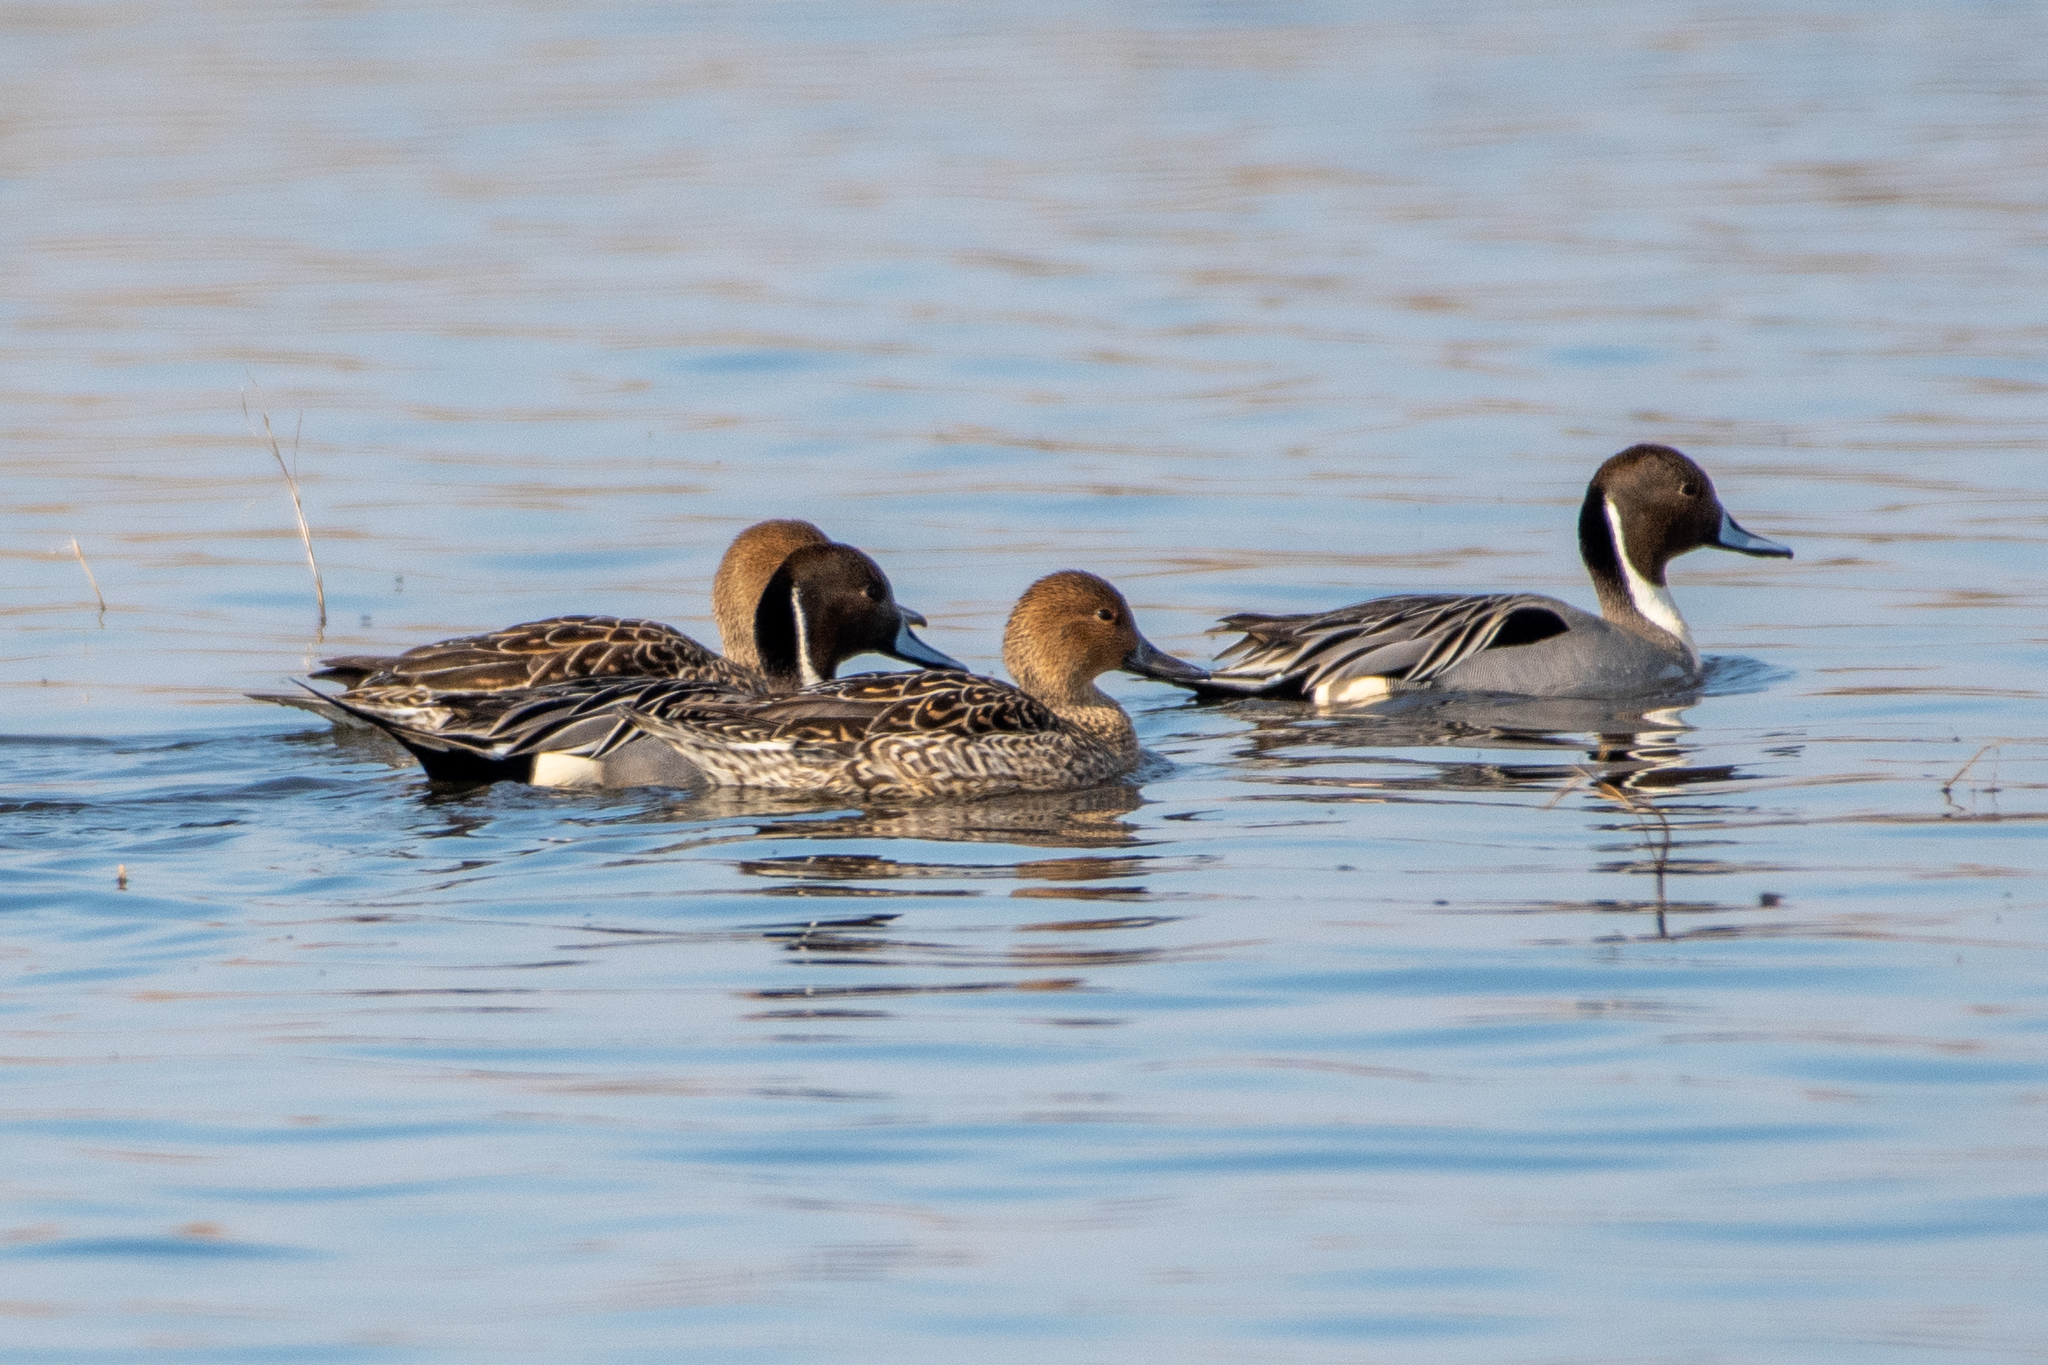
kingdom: Animalia
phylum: Chordata
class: Aves
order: Anseriformes
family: Anatidae
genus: Anas
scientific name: Anas acuta
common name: Northern pintail
